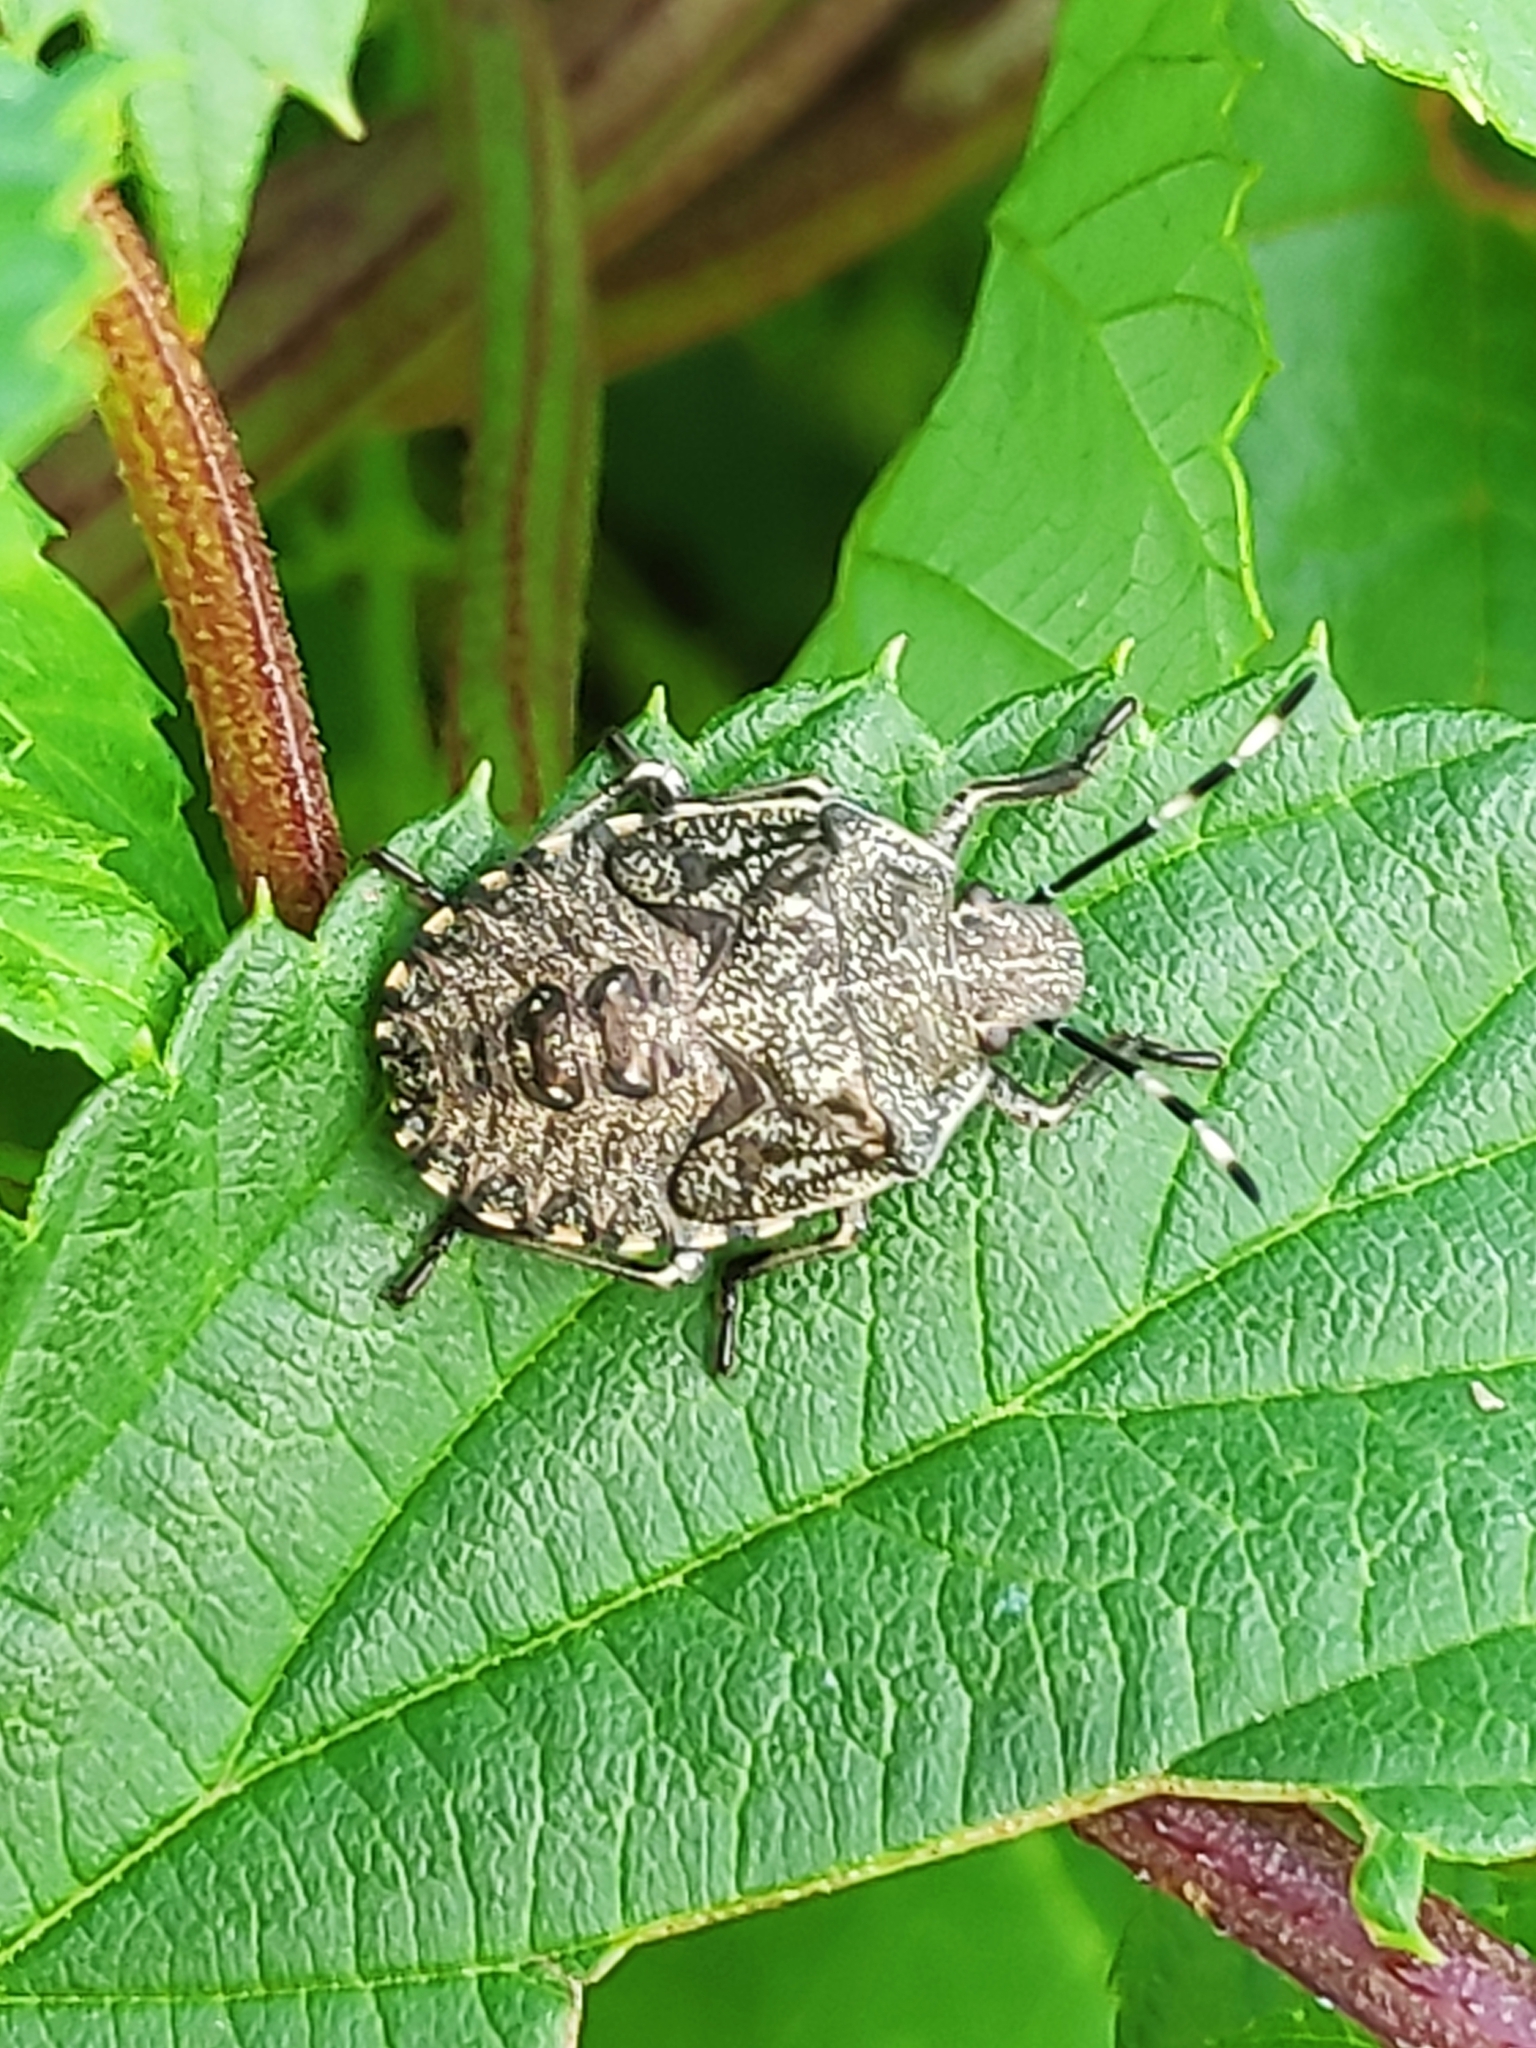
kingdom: Animalia
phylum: Arthropoda
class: Insecta
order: Hemiptera
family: Pentatomidae
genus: Rhaphigaster
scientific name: Rhaphigaster nebulosa
